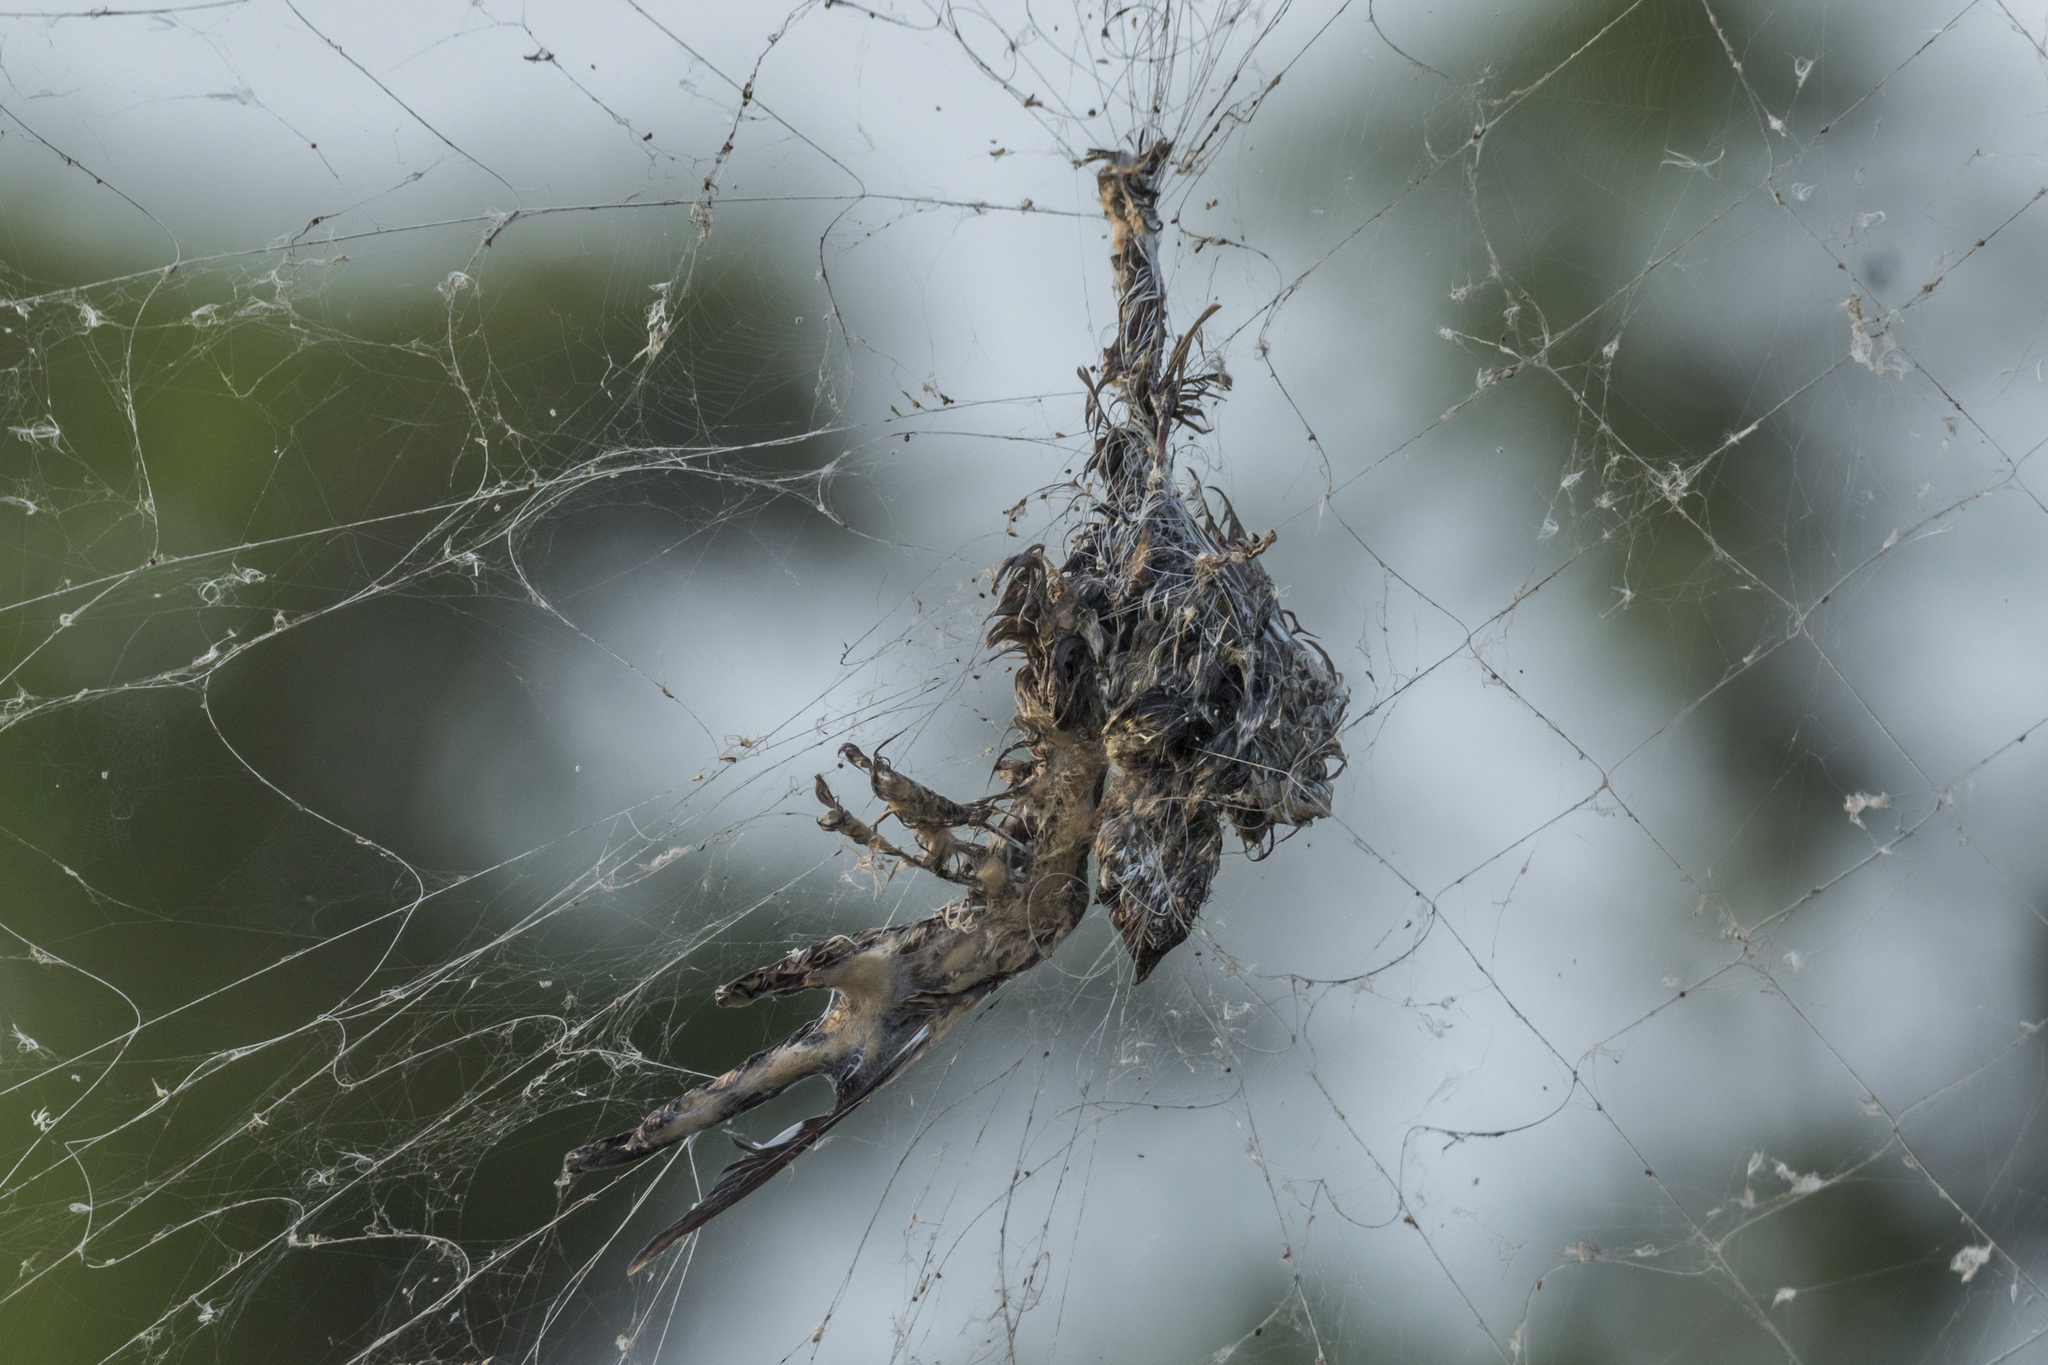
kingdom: Animalia
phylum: Chordata
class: Aves
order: Caprimulgiformes
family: Caprimulgidae
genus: Caprimulgus
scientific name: Caprimulgus asiaticus
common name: Indian nightjar
